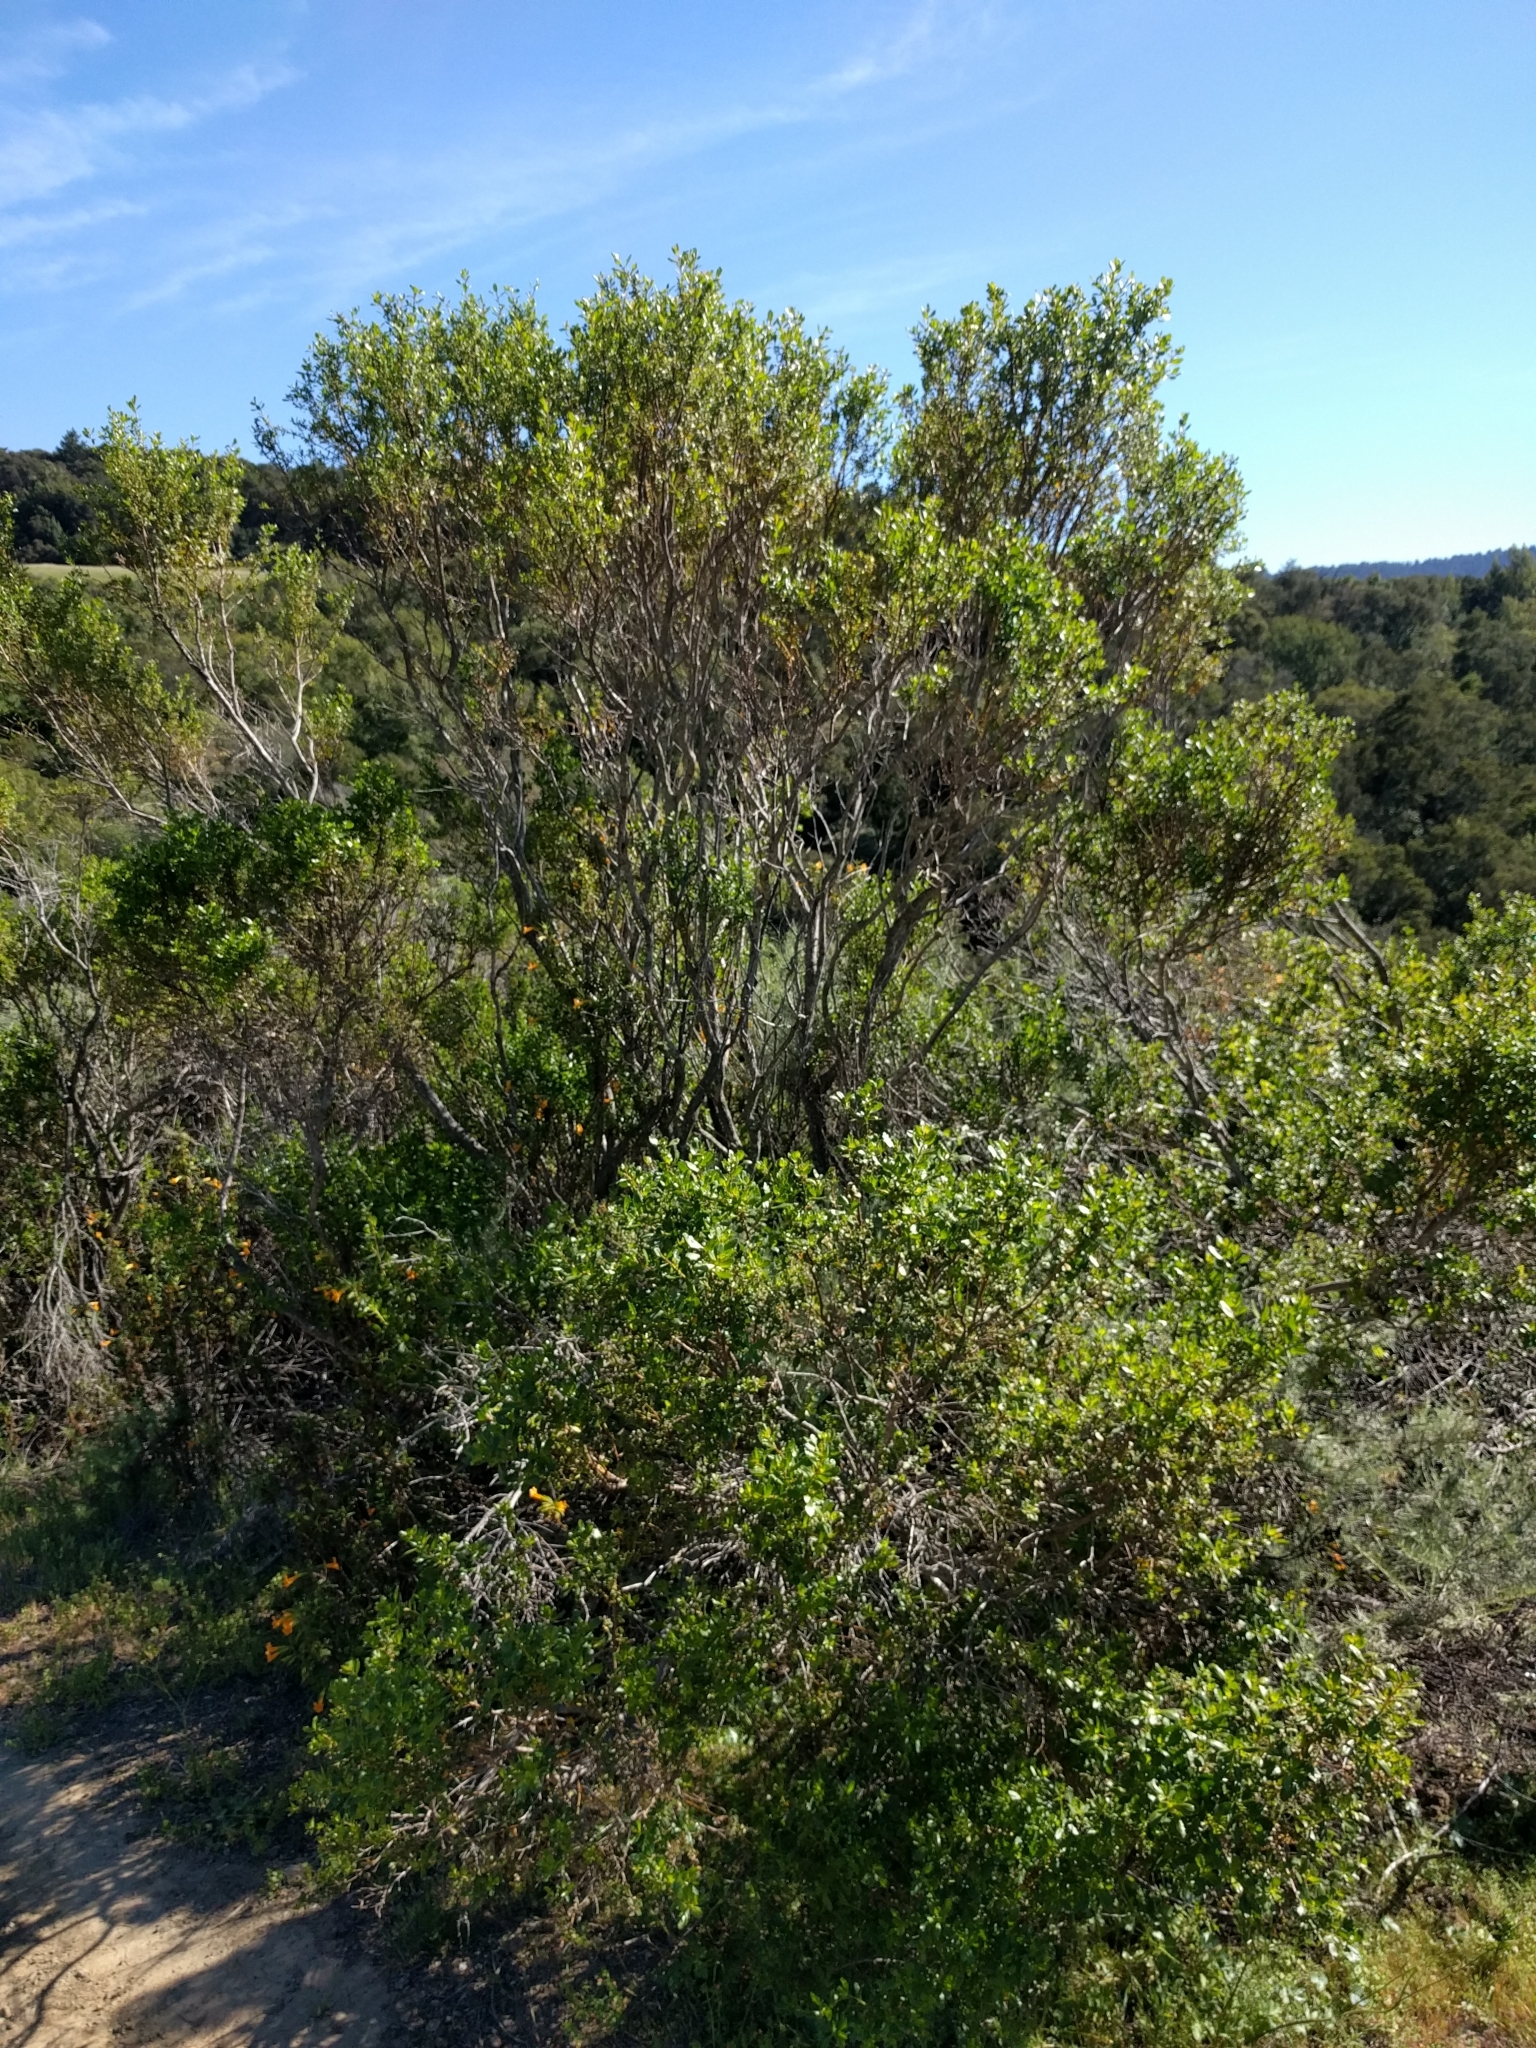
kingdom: Plantae
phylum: Tracheophyta
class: Magnoliopsida
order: Asterales
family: Asteraceae
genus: Baccharis
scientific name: Baccharis pilularis
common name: Coyotebrush
